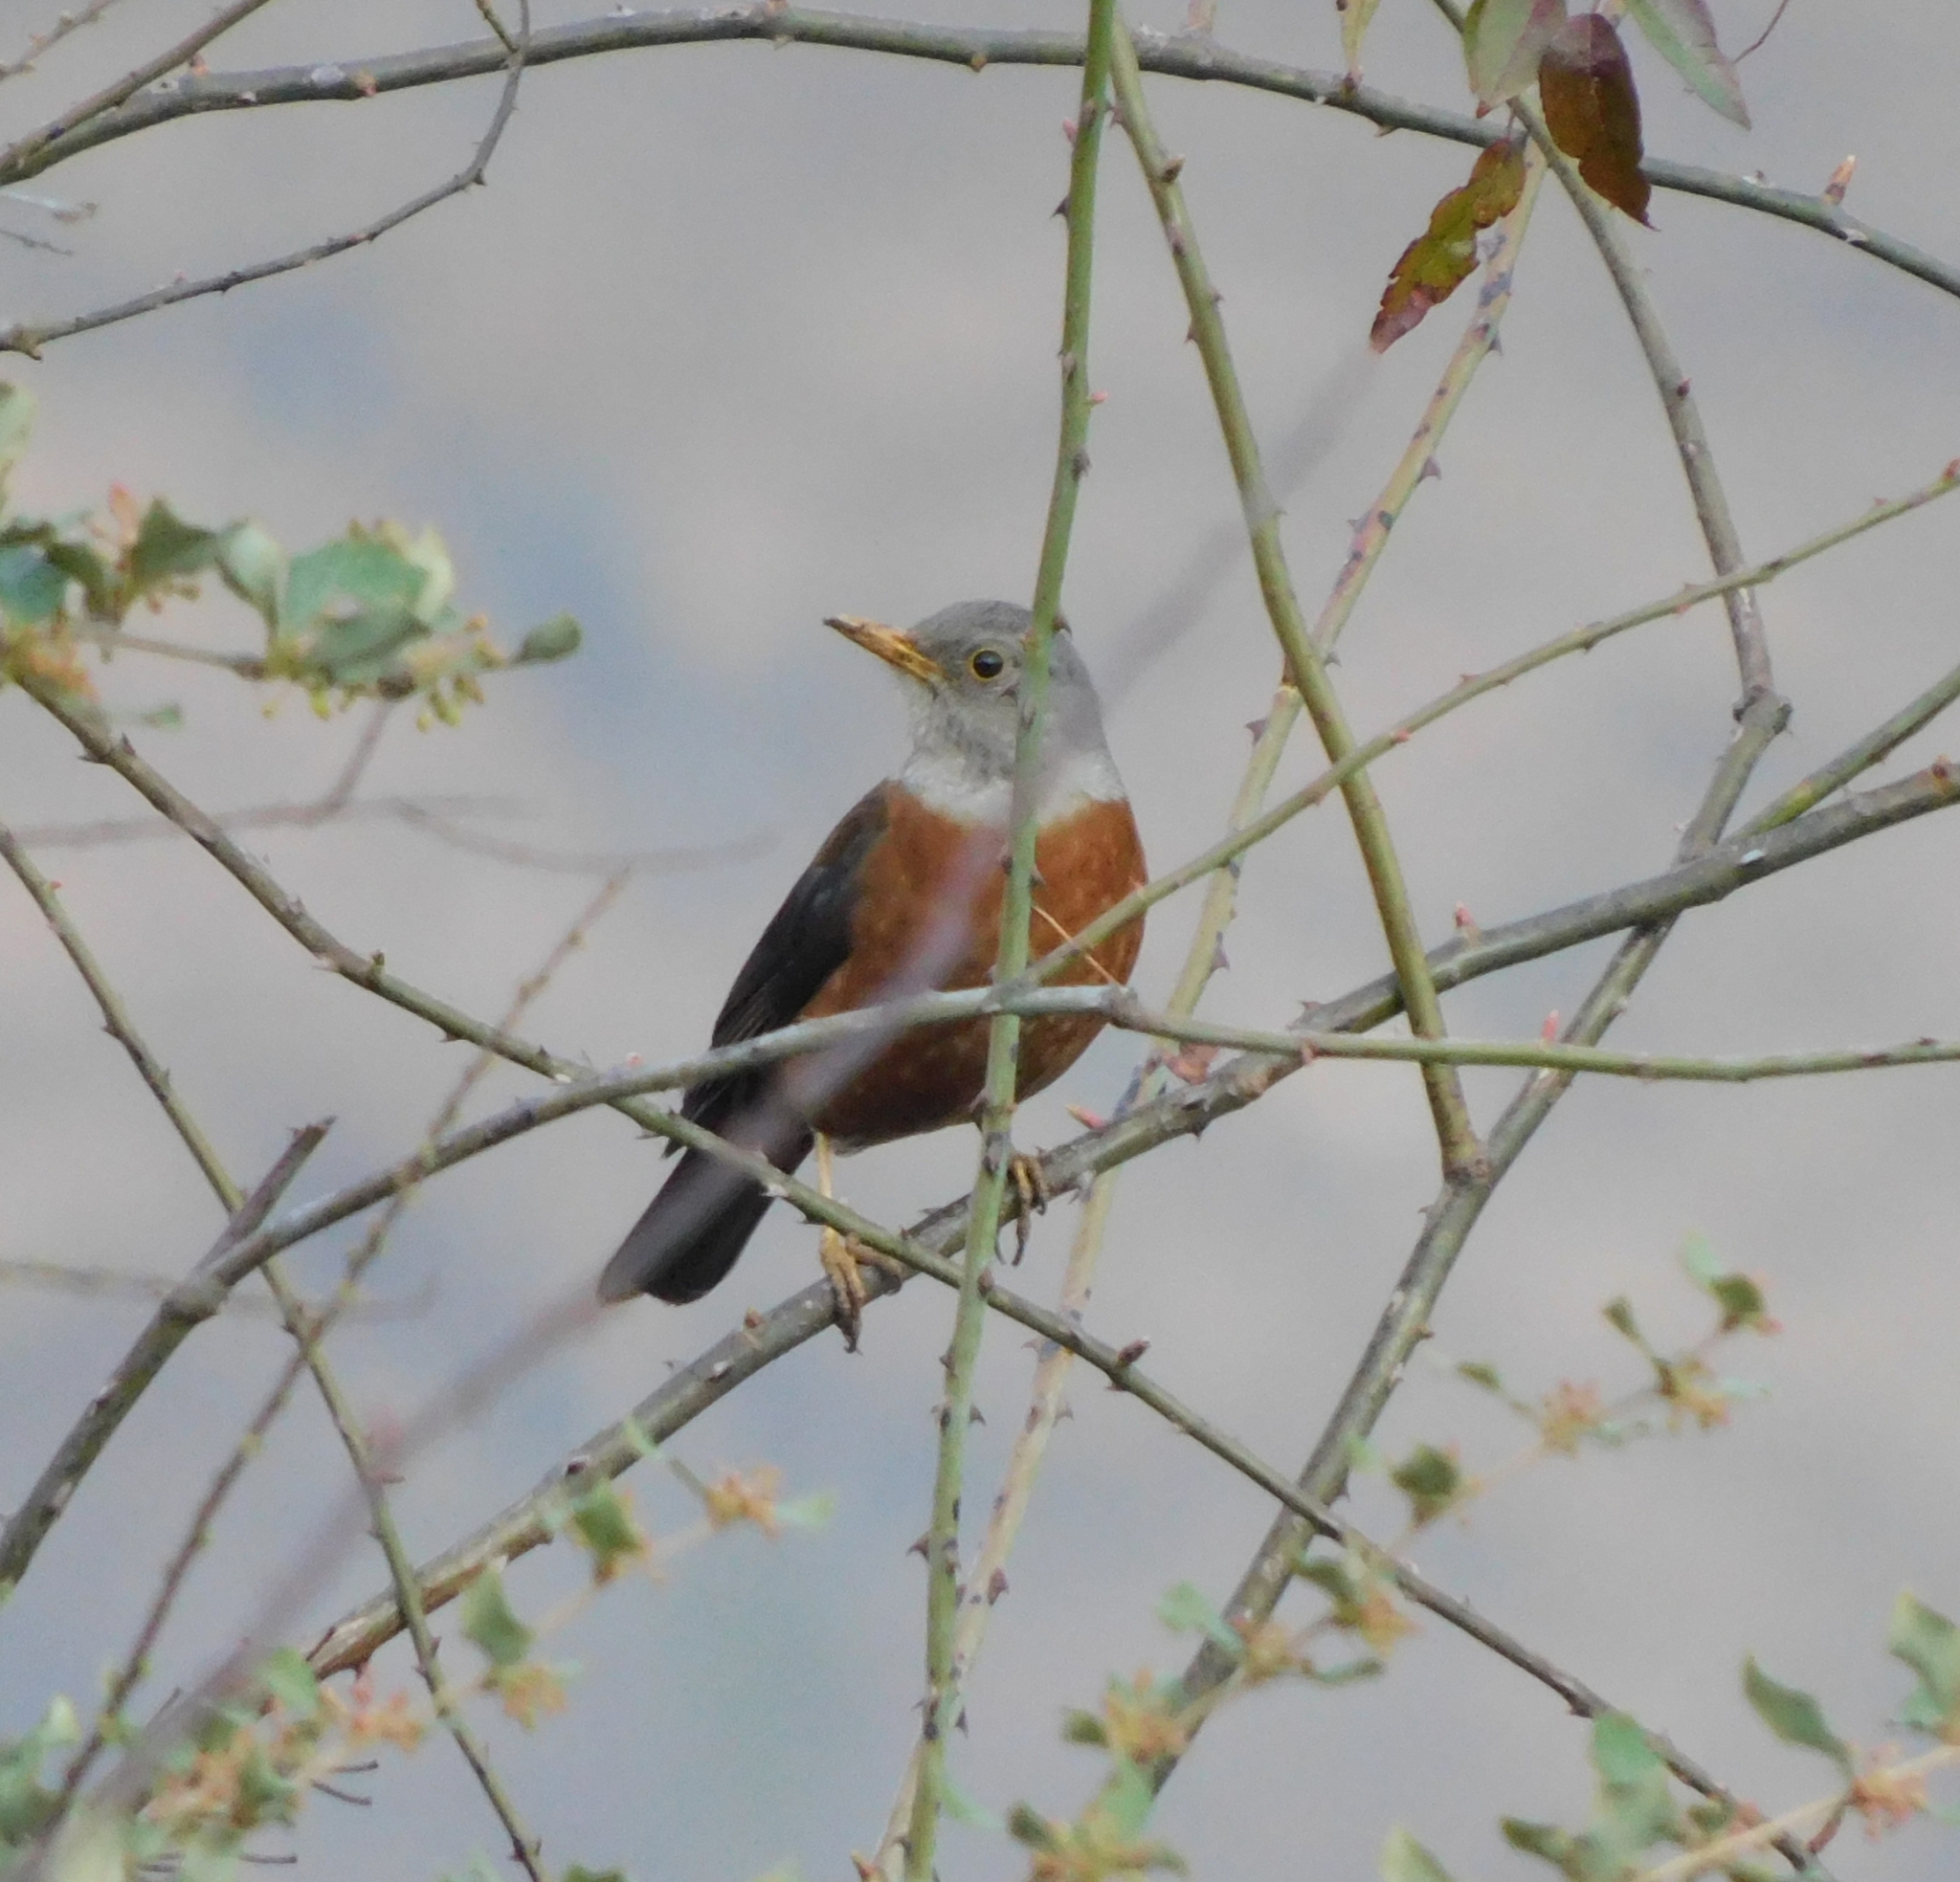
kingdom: Animalia
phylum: Chordata
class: Aves
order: Passeriformes
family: Turdidae
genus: Turdus
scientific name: Turdus rubrocanus
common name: Chestnut thrush
